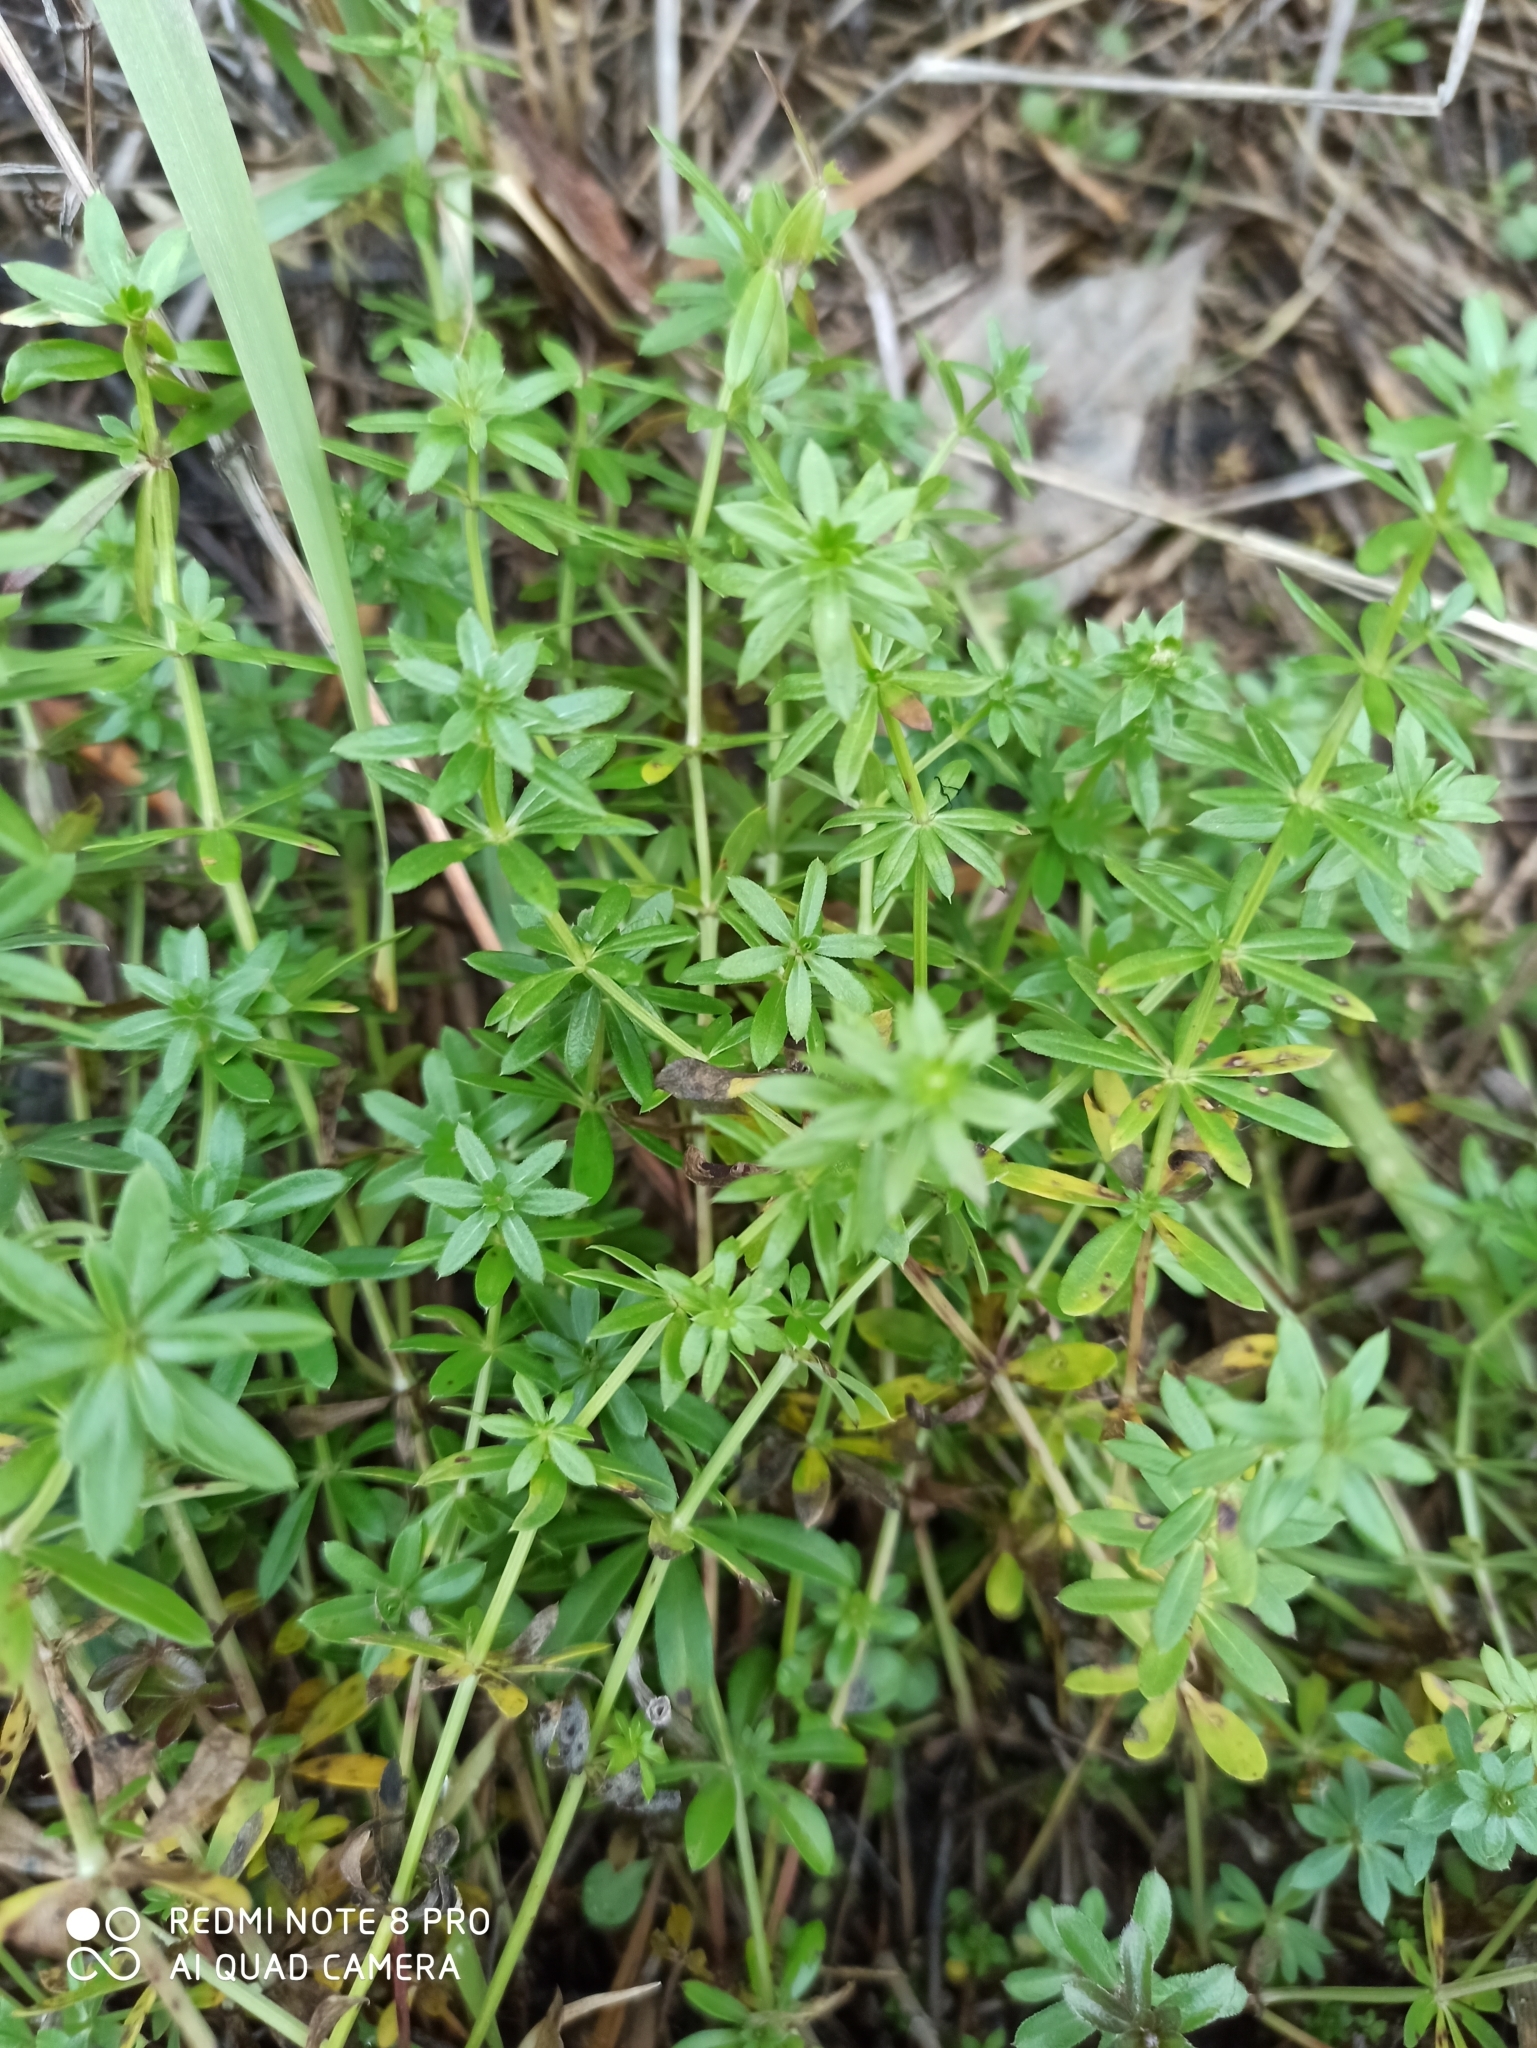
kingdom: Plantae
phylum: Tracheophyta
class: Magnoliopsida
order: Gentianales
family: Rubiaceae
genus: Galium
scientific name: Galium mollugo
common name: Hedge bedstraw
